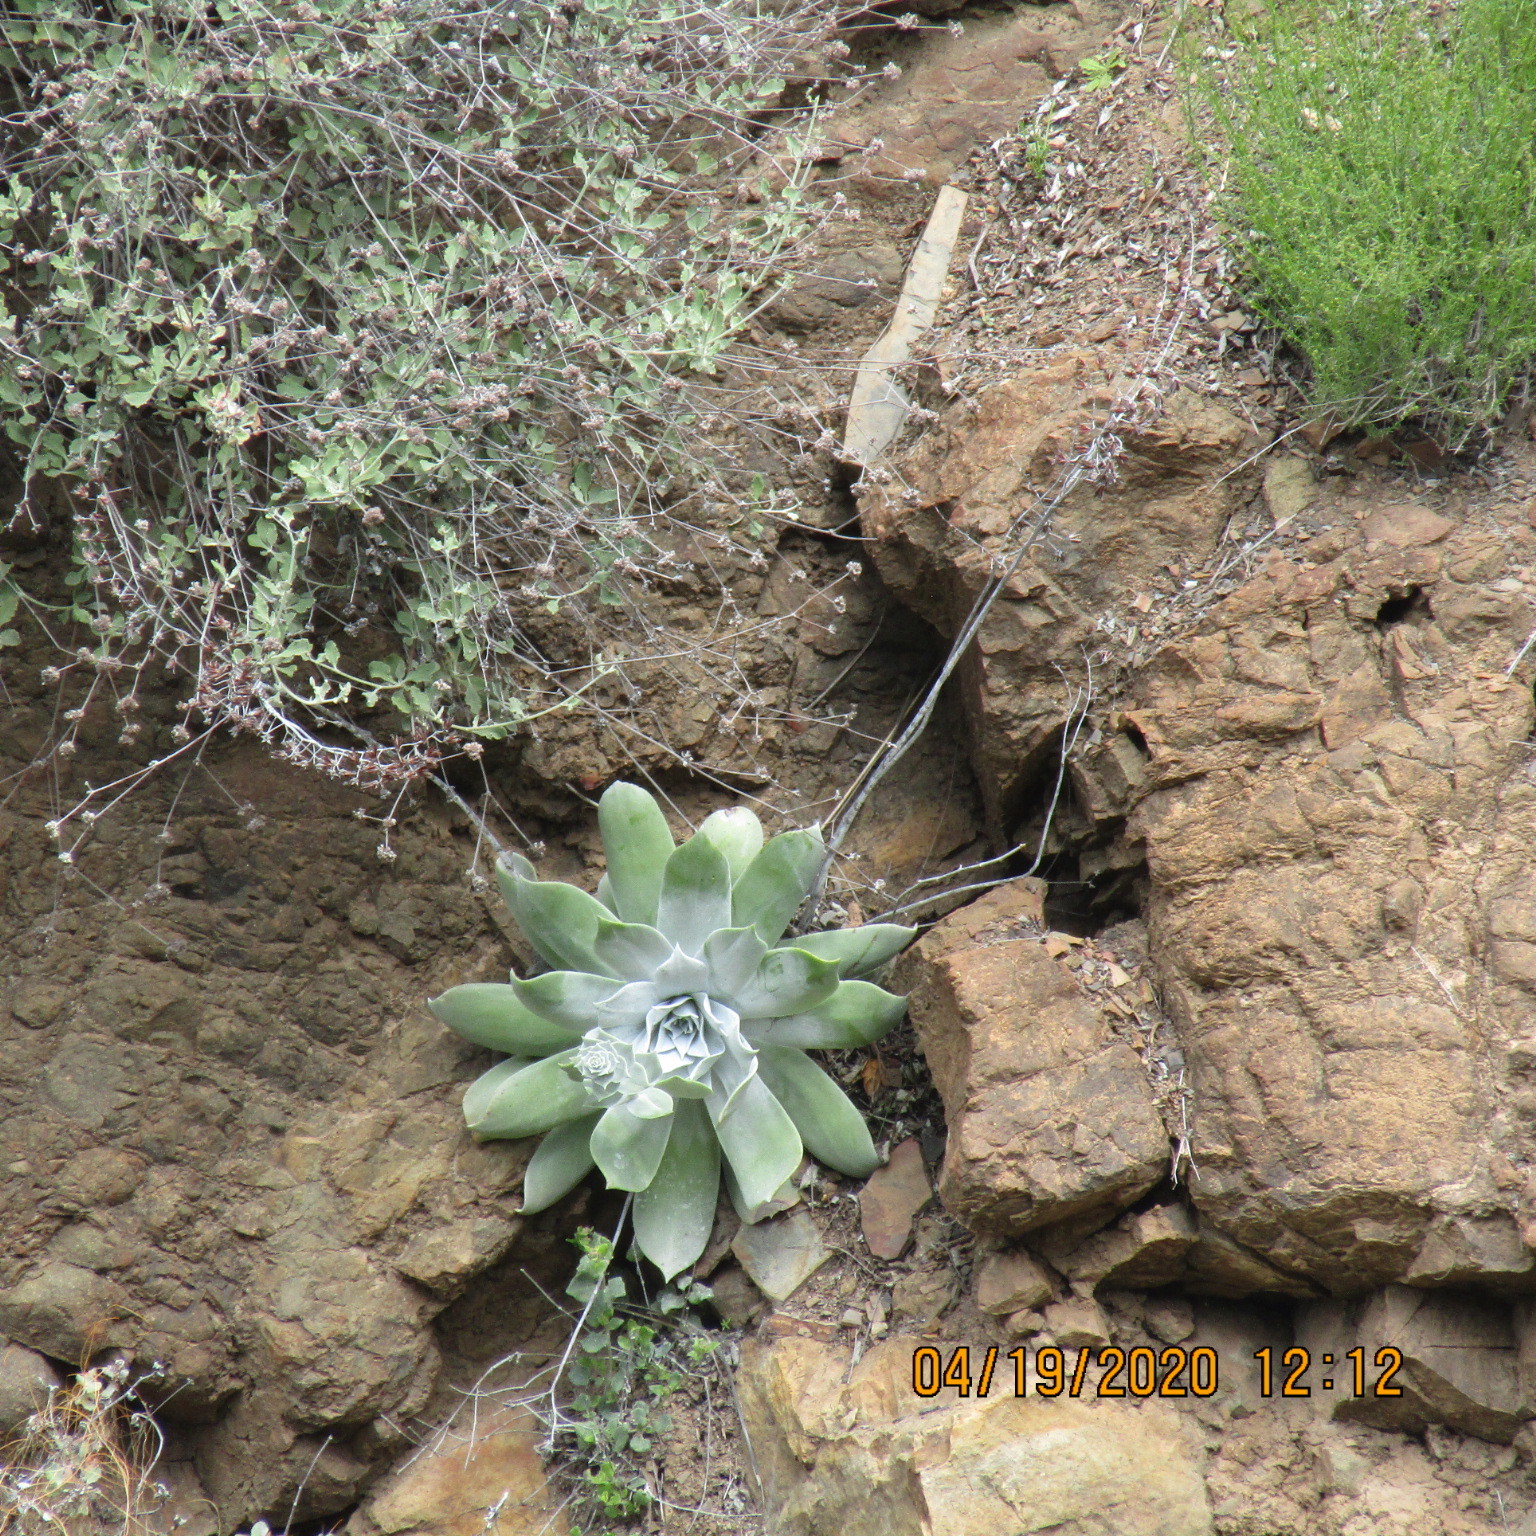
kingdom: Plantae
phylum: Tracheophyta
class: Magnoliopsida
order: Saxifragales
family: Crassulaceae
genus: Dudleya
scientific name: Dudleya pulverulenta
